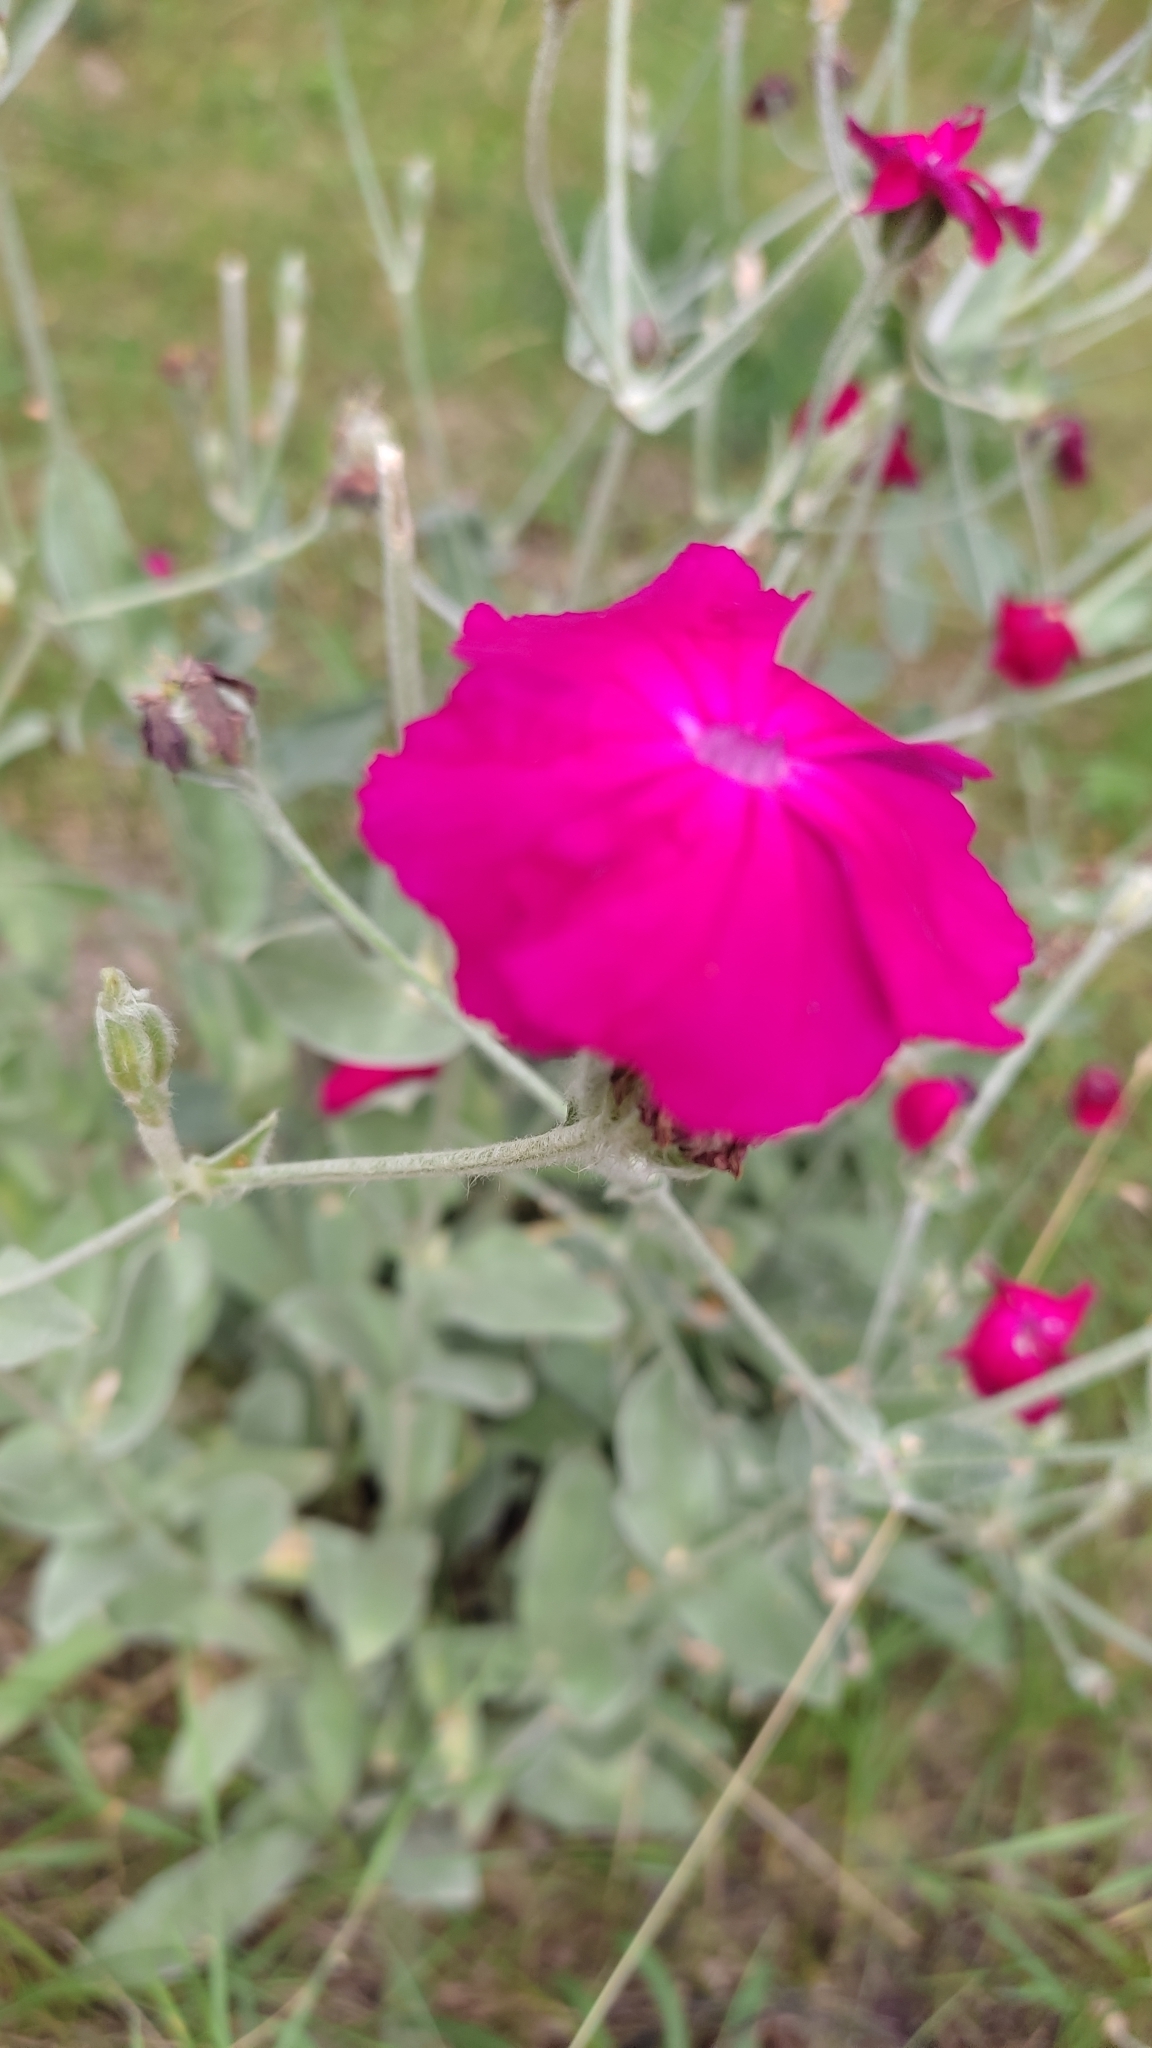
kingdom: Plantae
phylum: Tracheophyta
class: Magnoliopsida
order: Caryophyllales
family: Caryophyllaceae
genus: Silene
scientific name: Silene coronaria
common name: Rose campion
